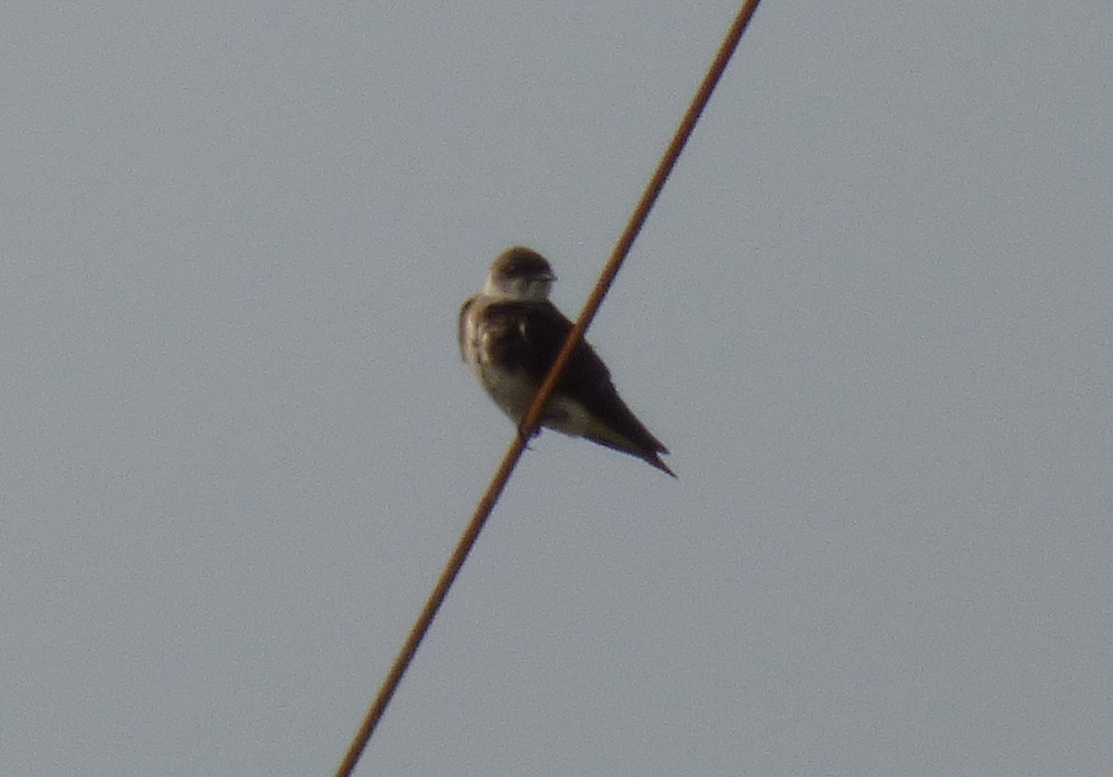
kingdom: Animalia
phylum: Chordata
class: Aves
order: Passeriformes
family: Hirundinidae
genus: Progne
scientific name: Progne tapera
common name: Brown-chested martin
